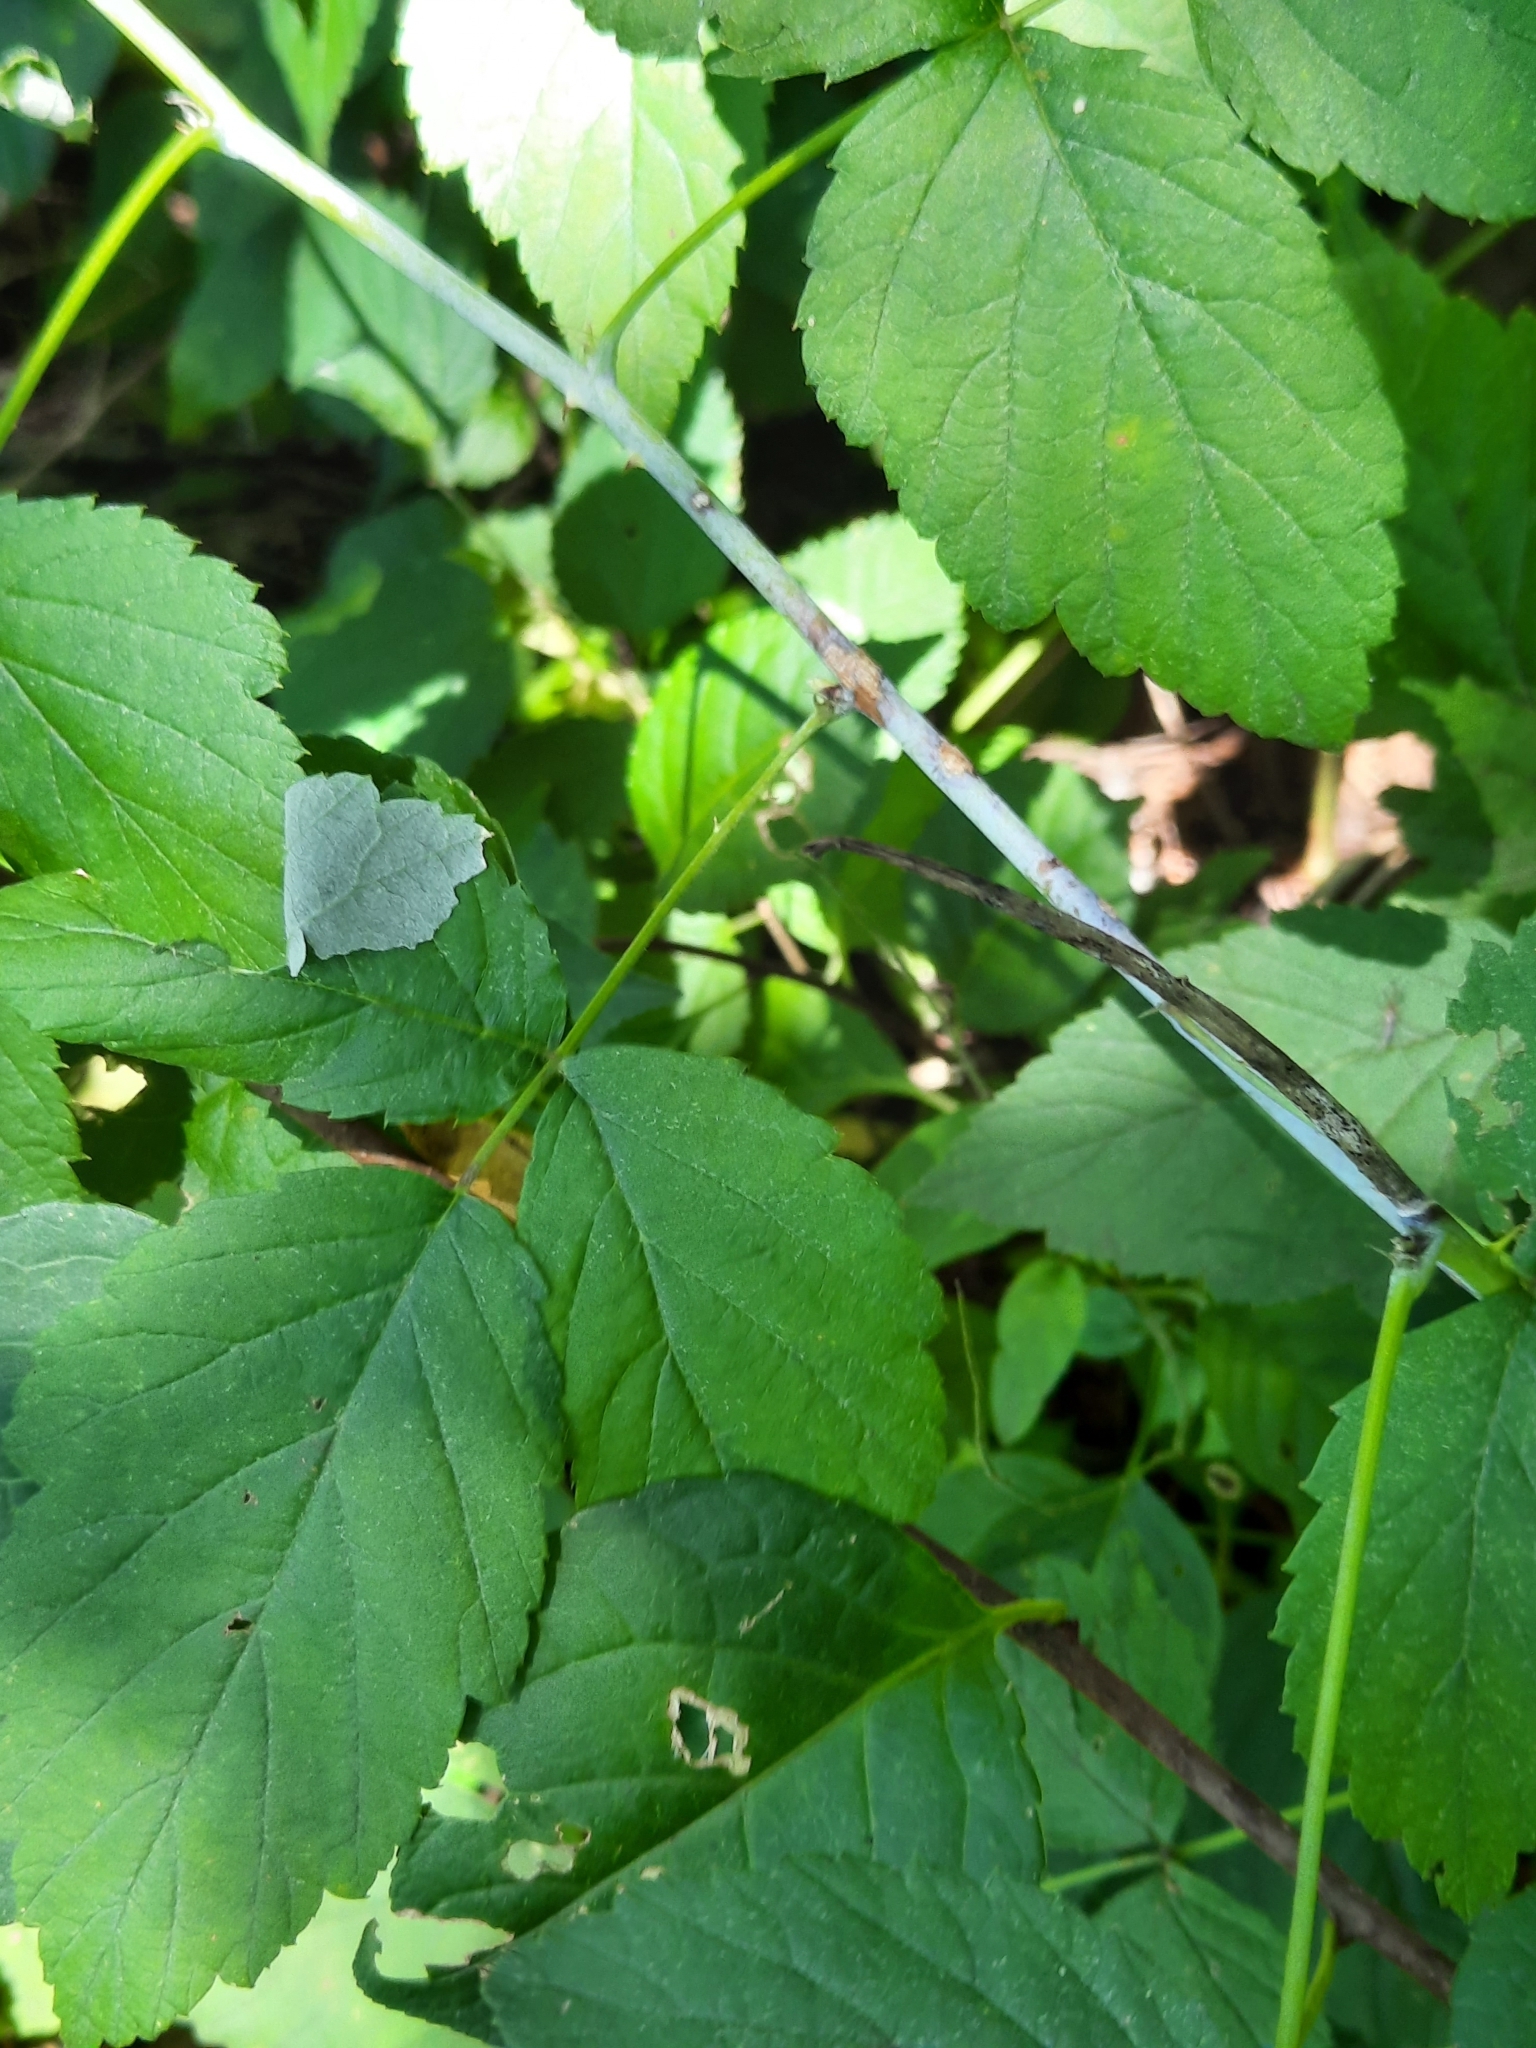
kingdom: Plantae
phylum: Tracheophyta
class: Magnoliopsida
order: Rosales
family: Rosaceae
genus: Rubus
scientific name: Rubus occidentalis
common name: Black raspberry
